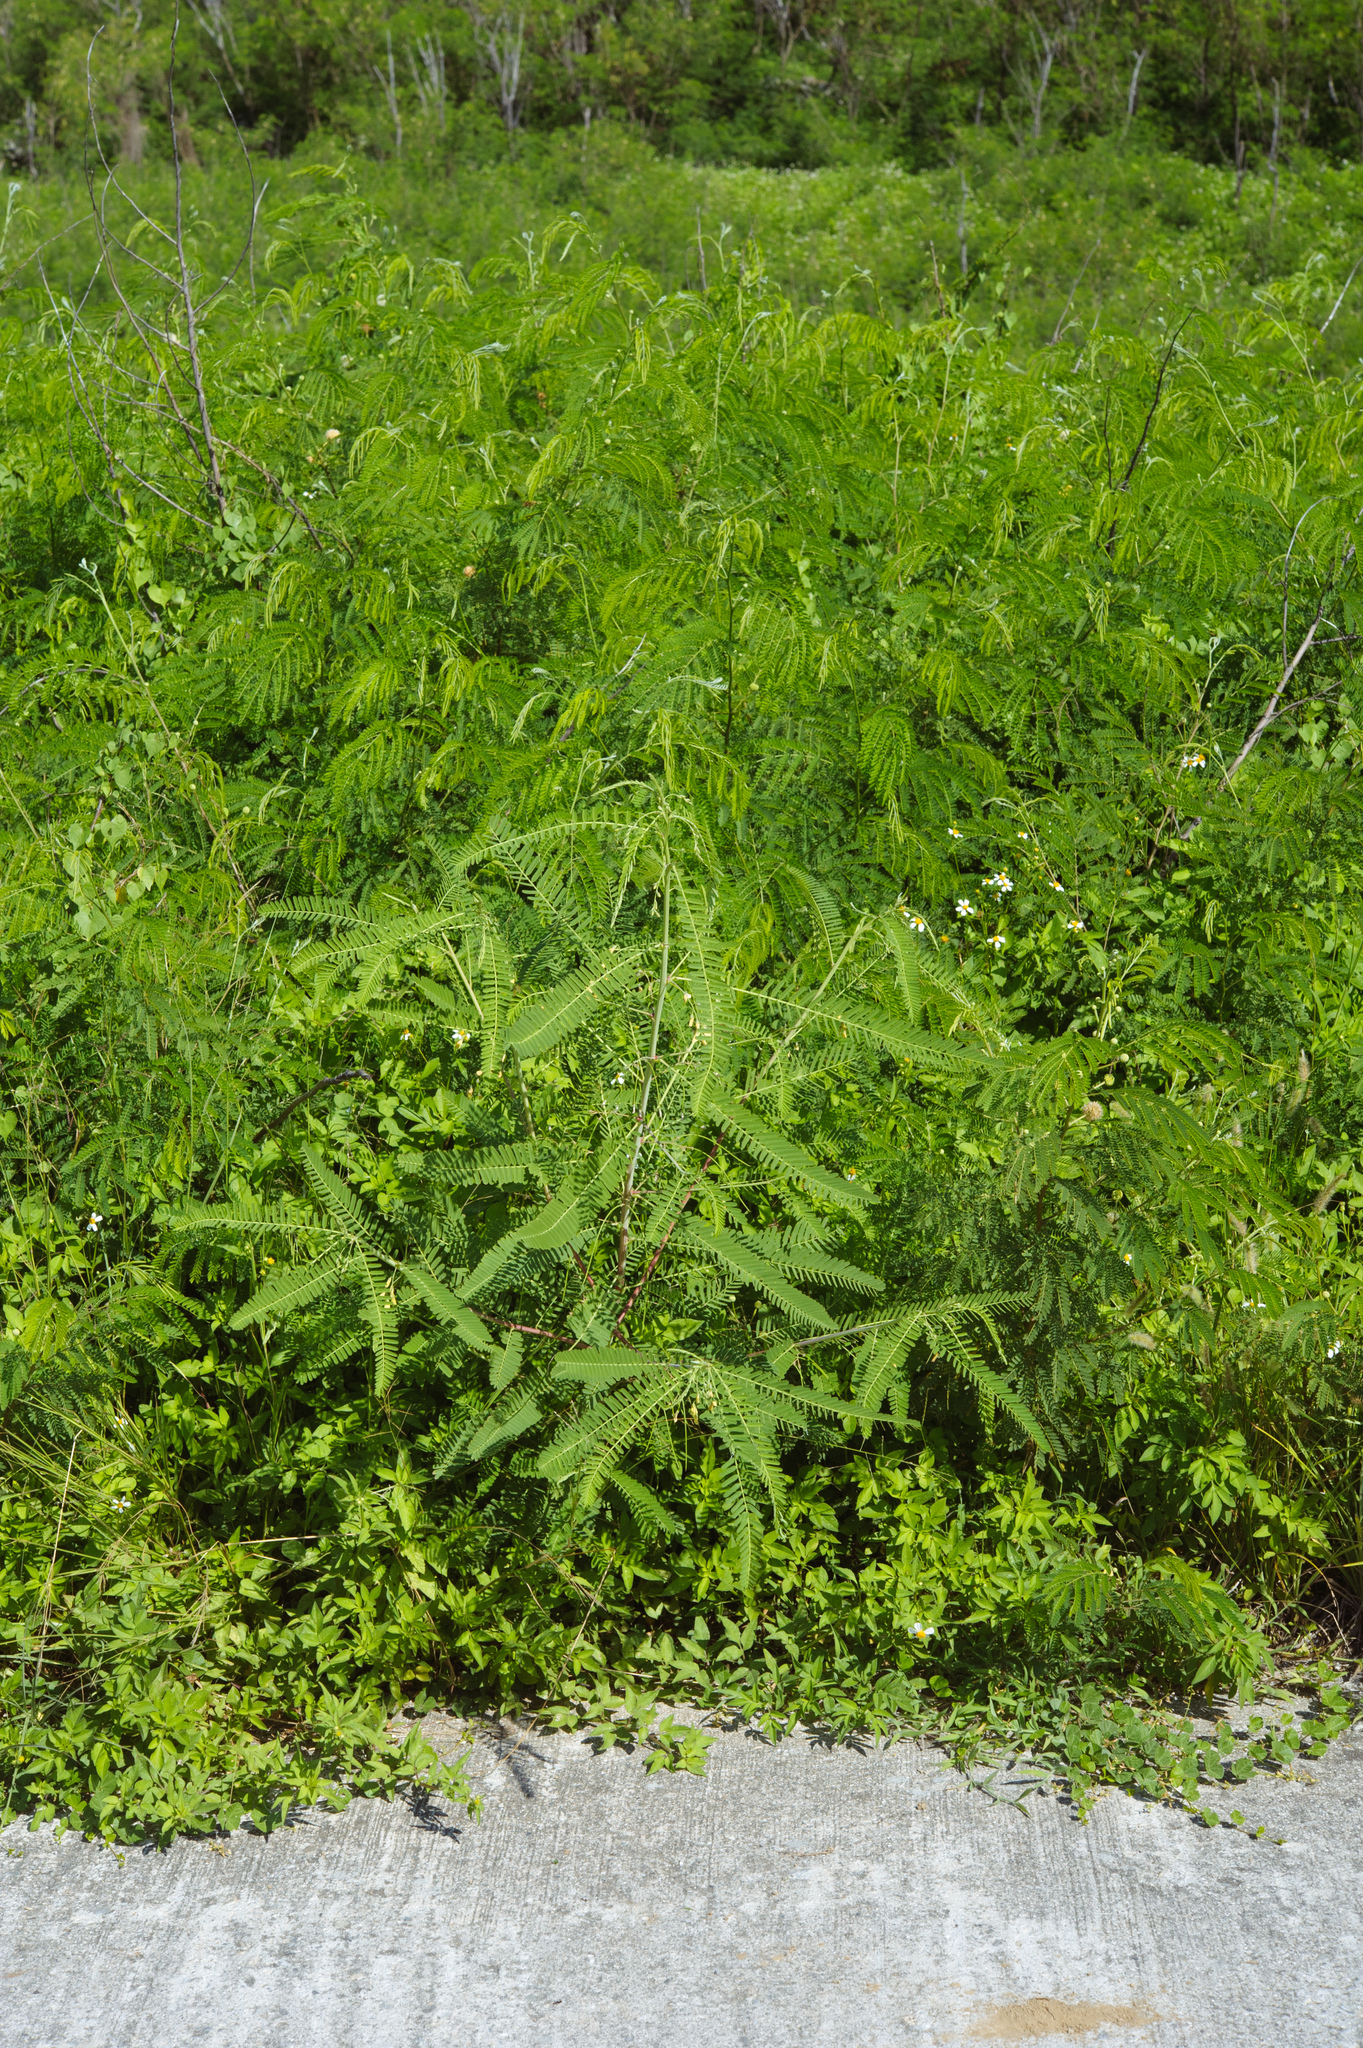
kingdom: Plantae
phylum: Tracheophyta
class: Magnoliopsida
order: Fabales
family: Fabaceae
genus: Sesbania
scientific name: Sesbania sesban
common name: Egyptian sesban
